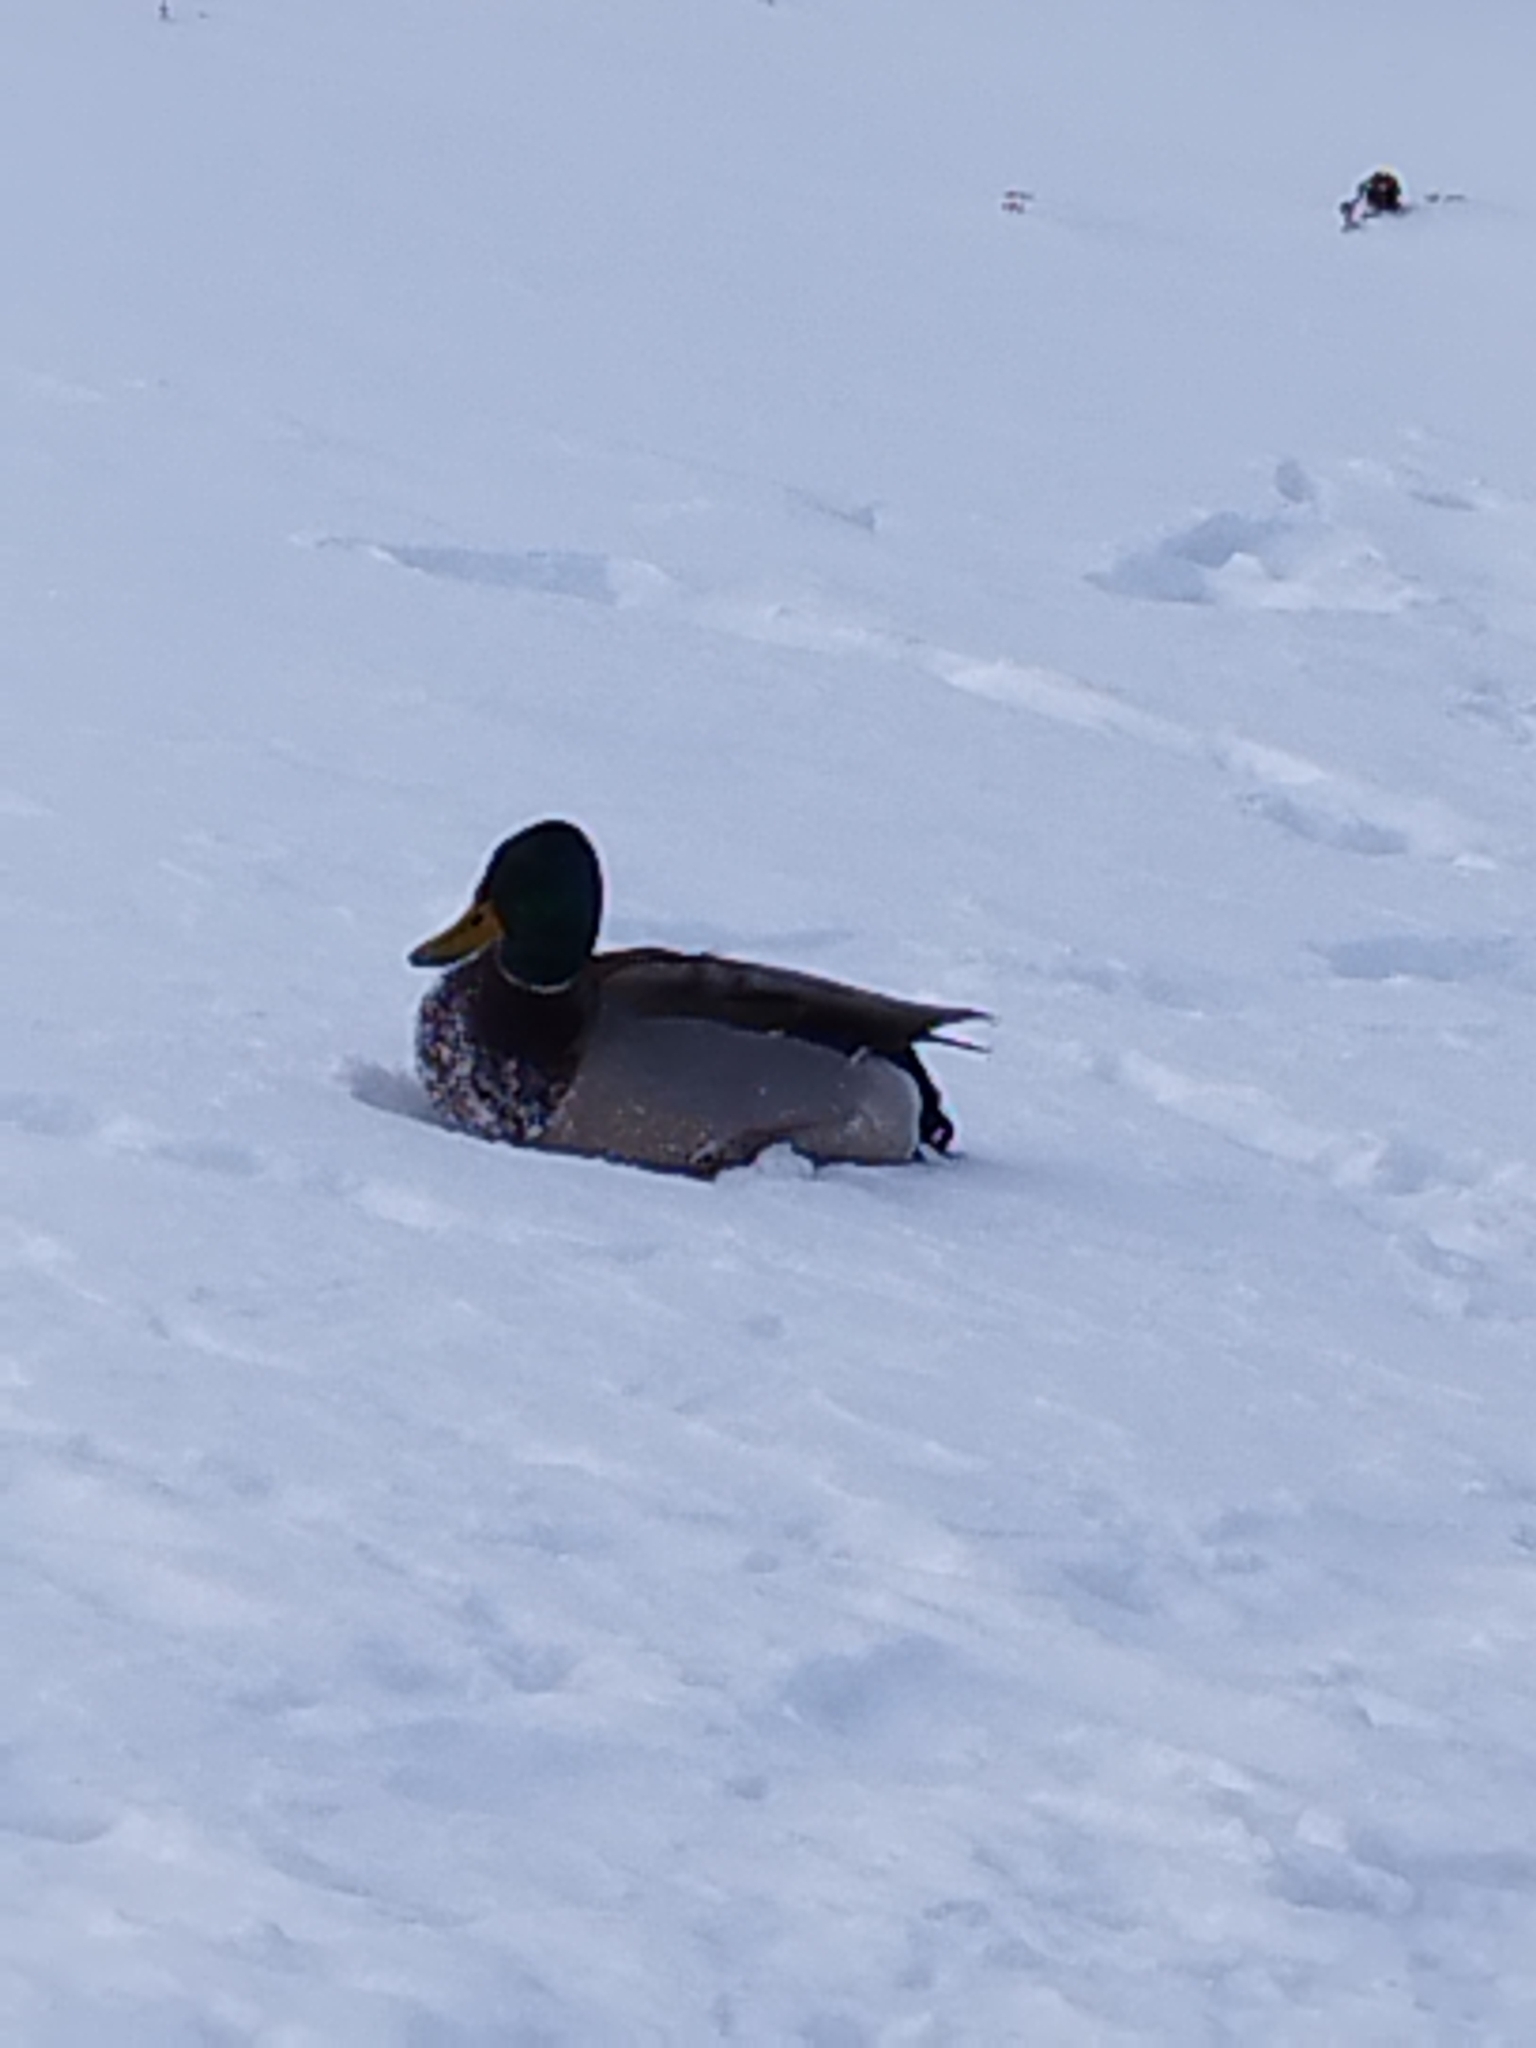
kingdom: Animalia
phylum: Chordata
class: Aves
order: Anseriformes
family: Anatidae
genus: Anas
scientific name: Anas platyrhynchos
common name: Mallard
